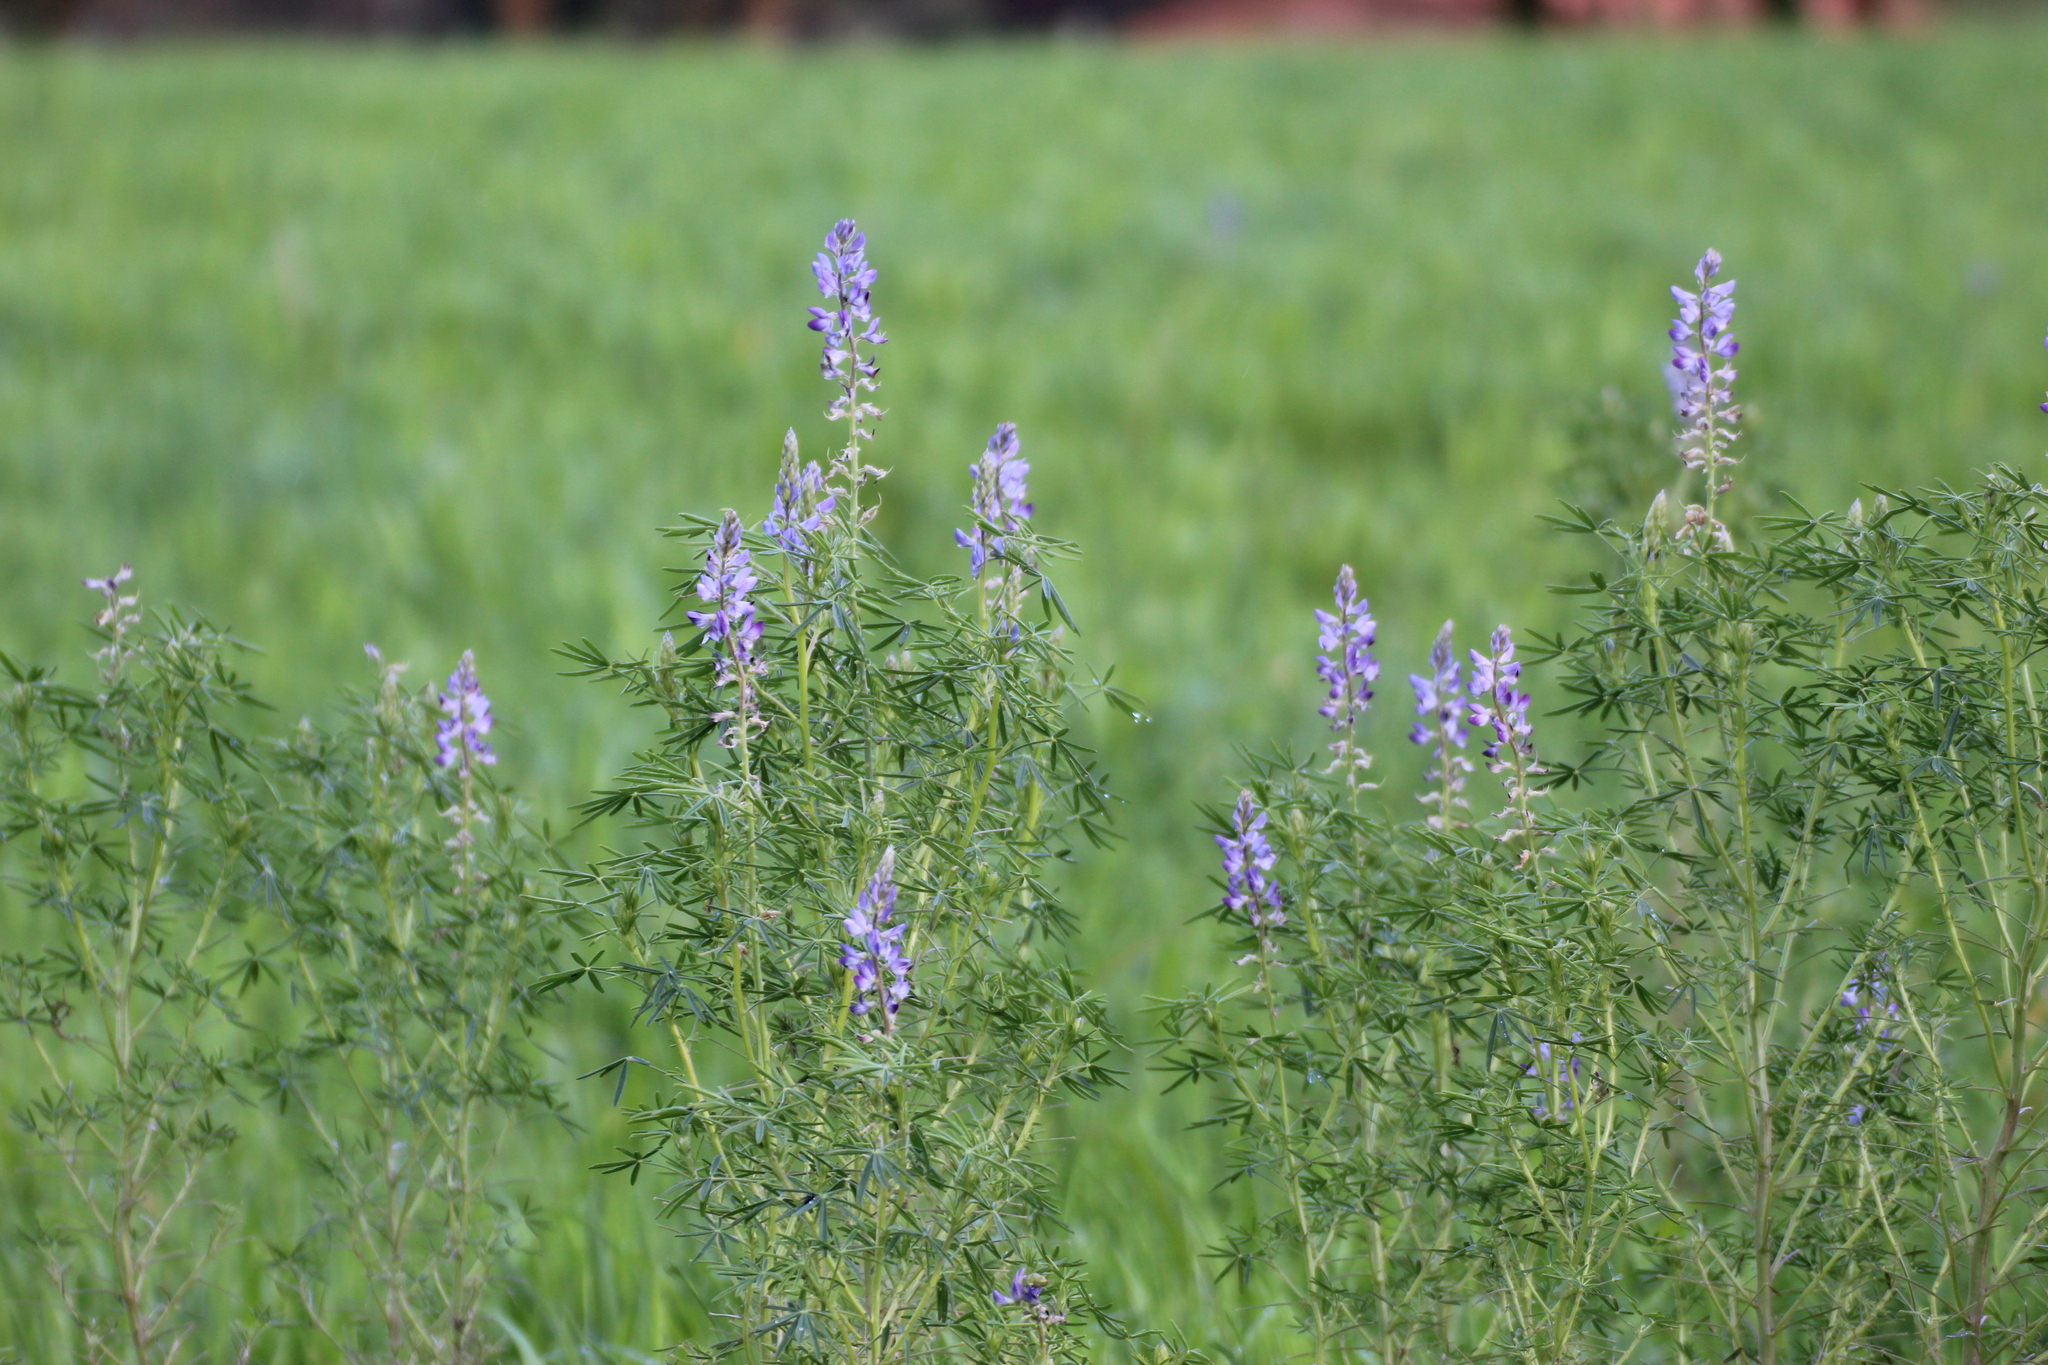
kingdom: Plantae
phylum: Tracheophyta
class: Magnoliopsida
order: Fabales
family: Fabaceae
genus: Lupinus
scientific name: Lupinus angustifolius
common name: Narrow-leaved lupin
